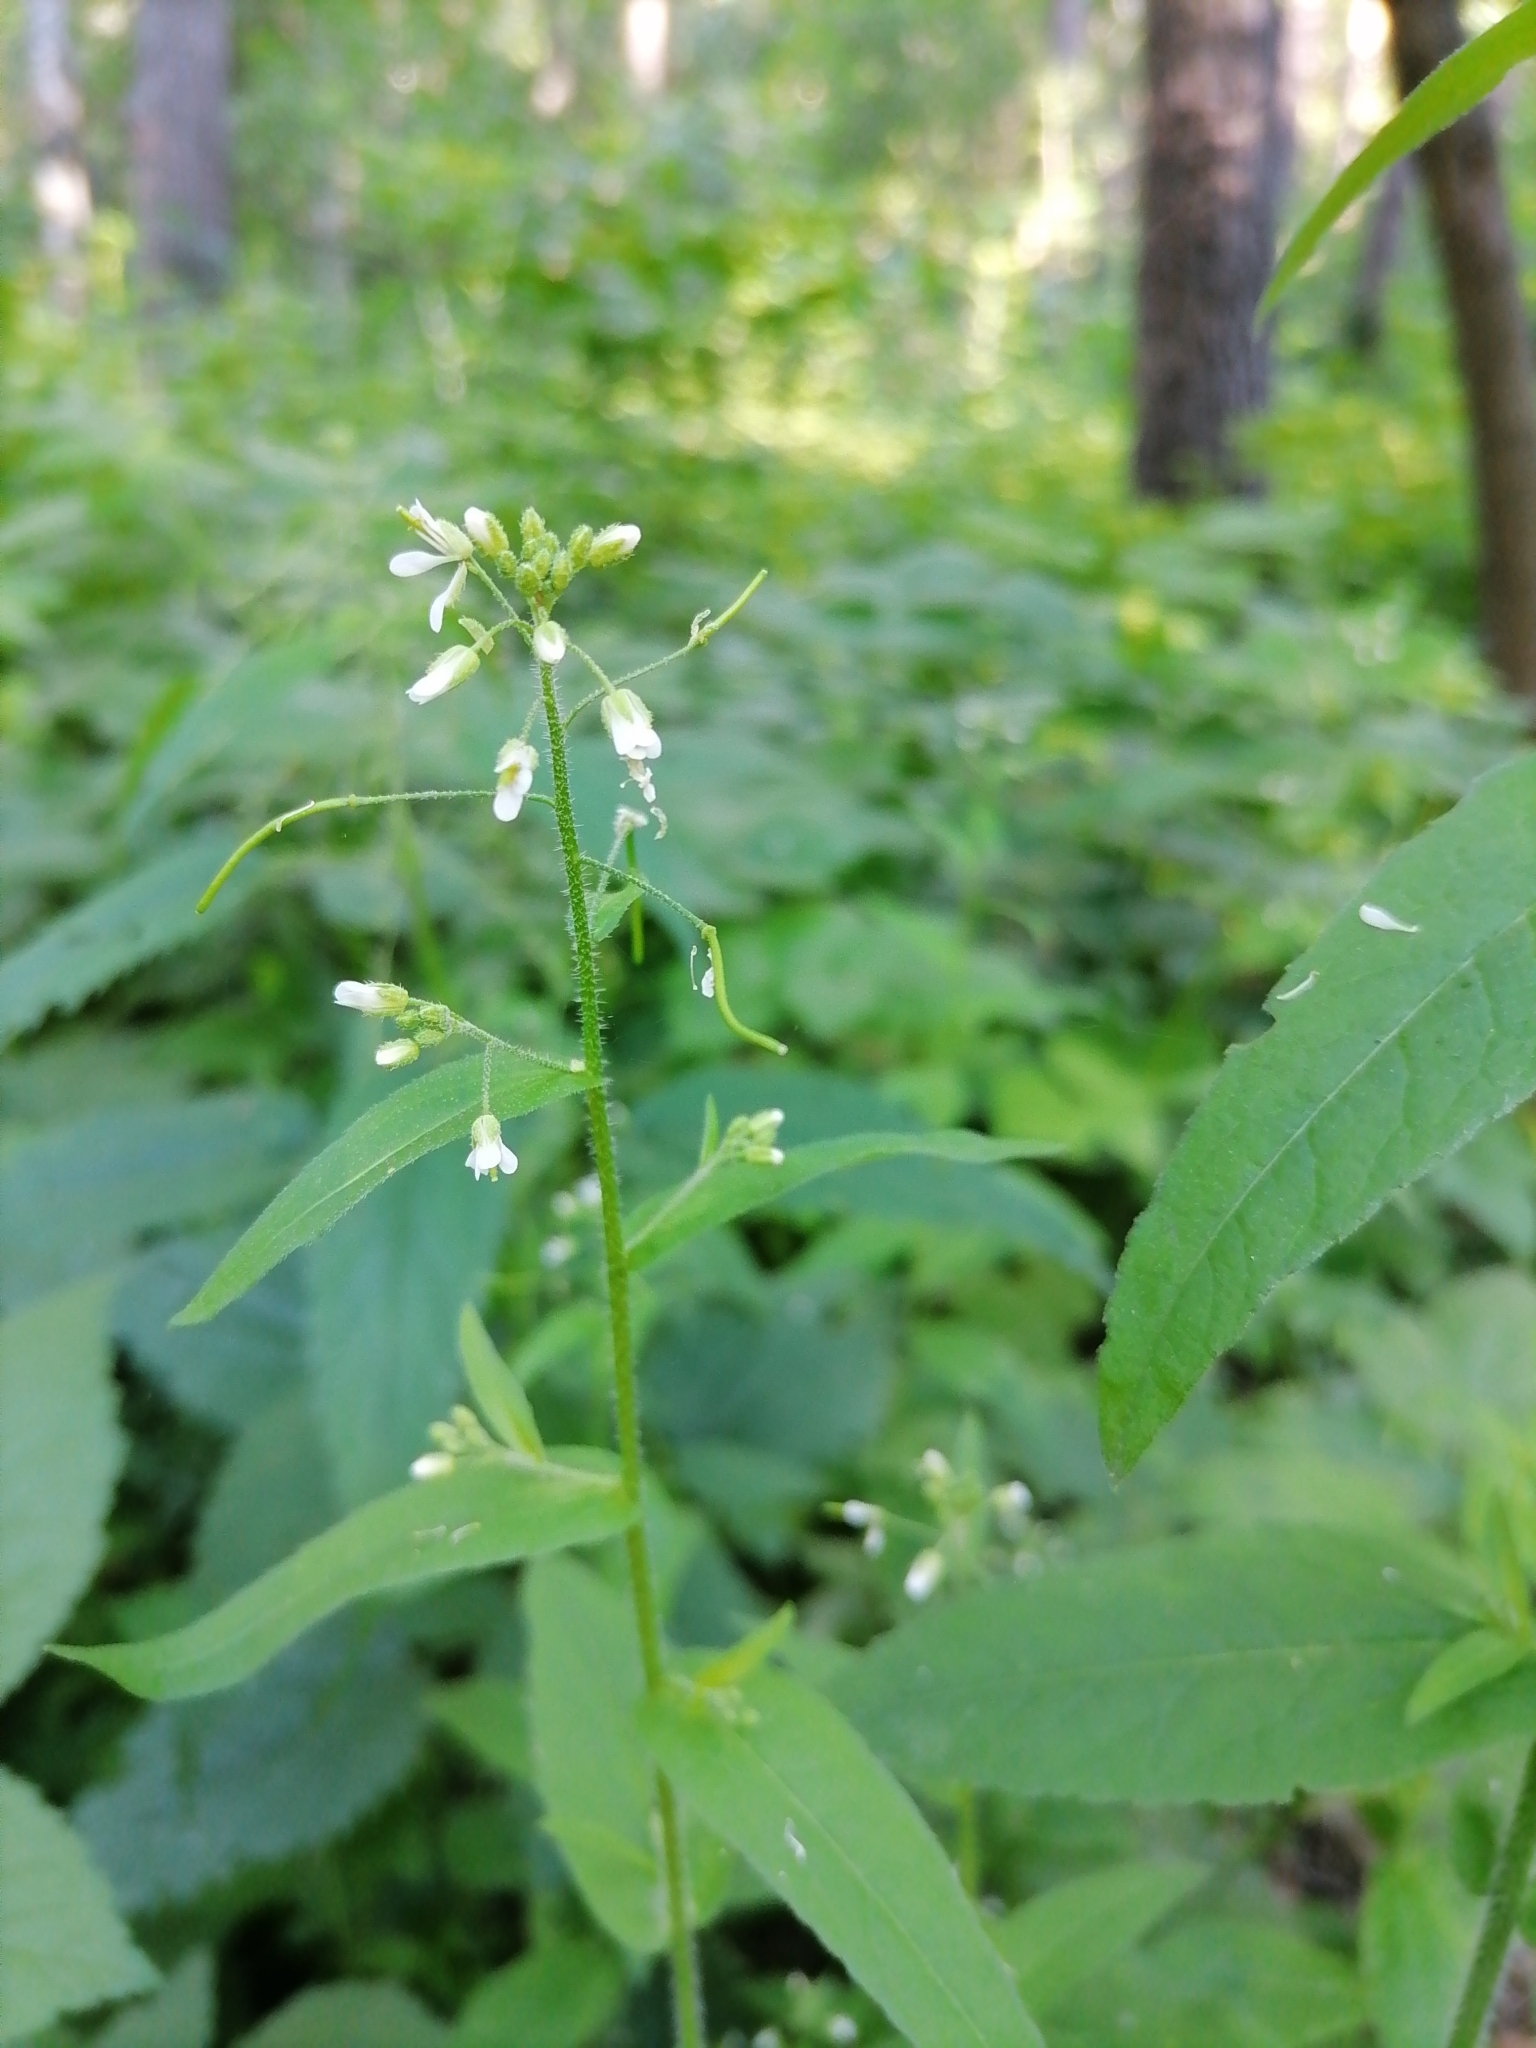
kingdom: Plantae
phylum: Tracheophyta
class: Magnoliopsida
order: Brassicales
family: Brassicaceae
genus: Catolobus
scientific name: Catolobus pendulus
